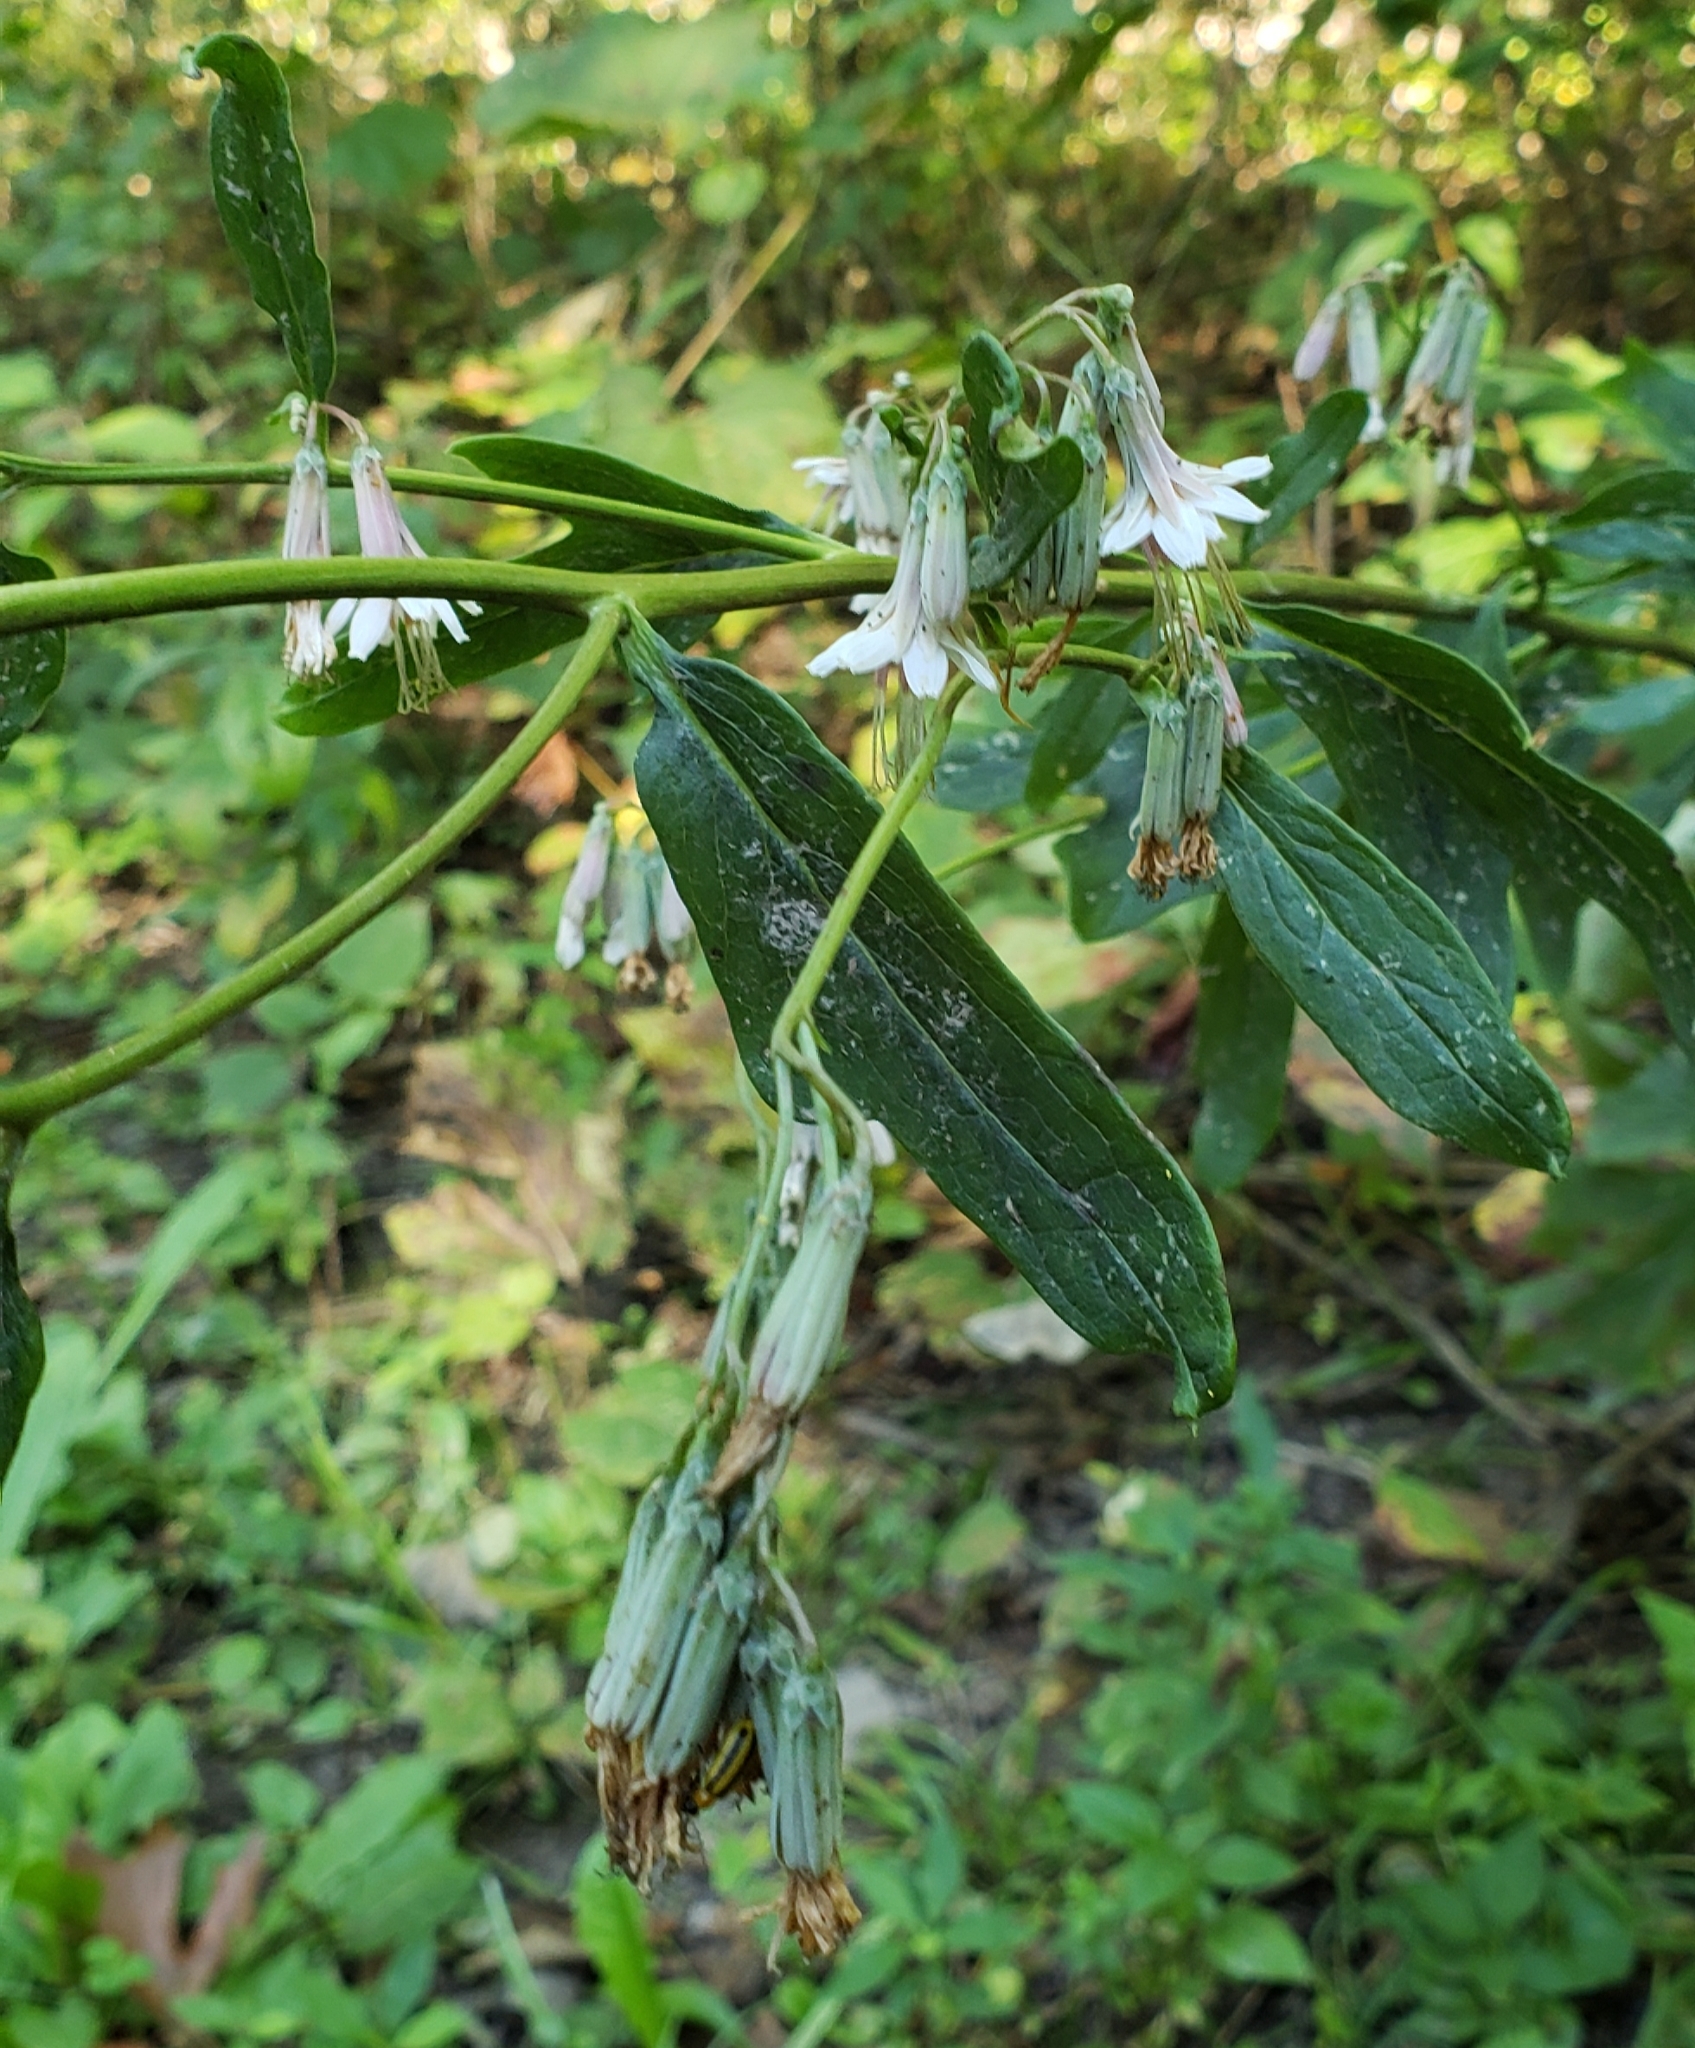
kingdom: Plantae
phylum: Tracheophyta
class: Magnoliopsida
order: Asterales
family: Asteraceae
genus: Nabalus
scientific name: Nabalus albus
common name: White rattlesnakeroot
